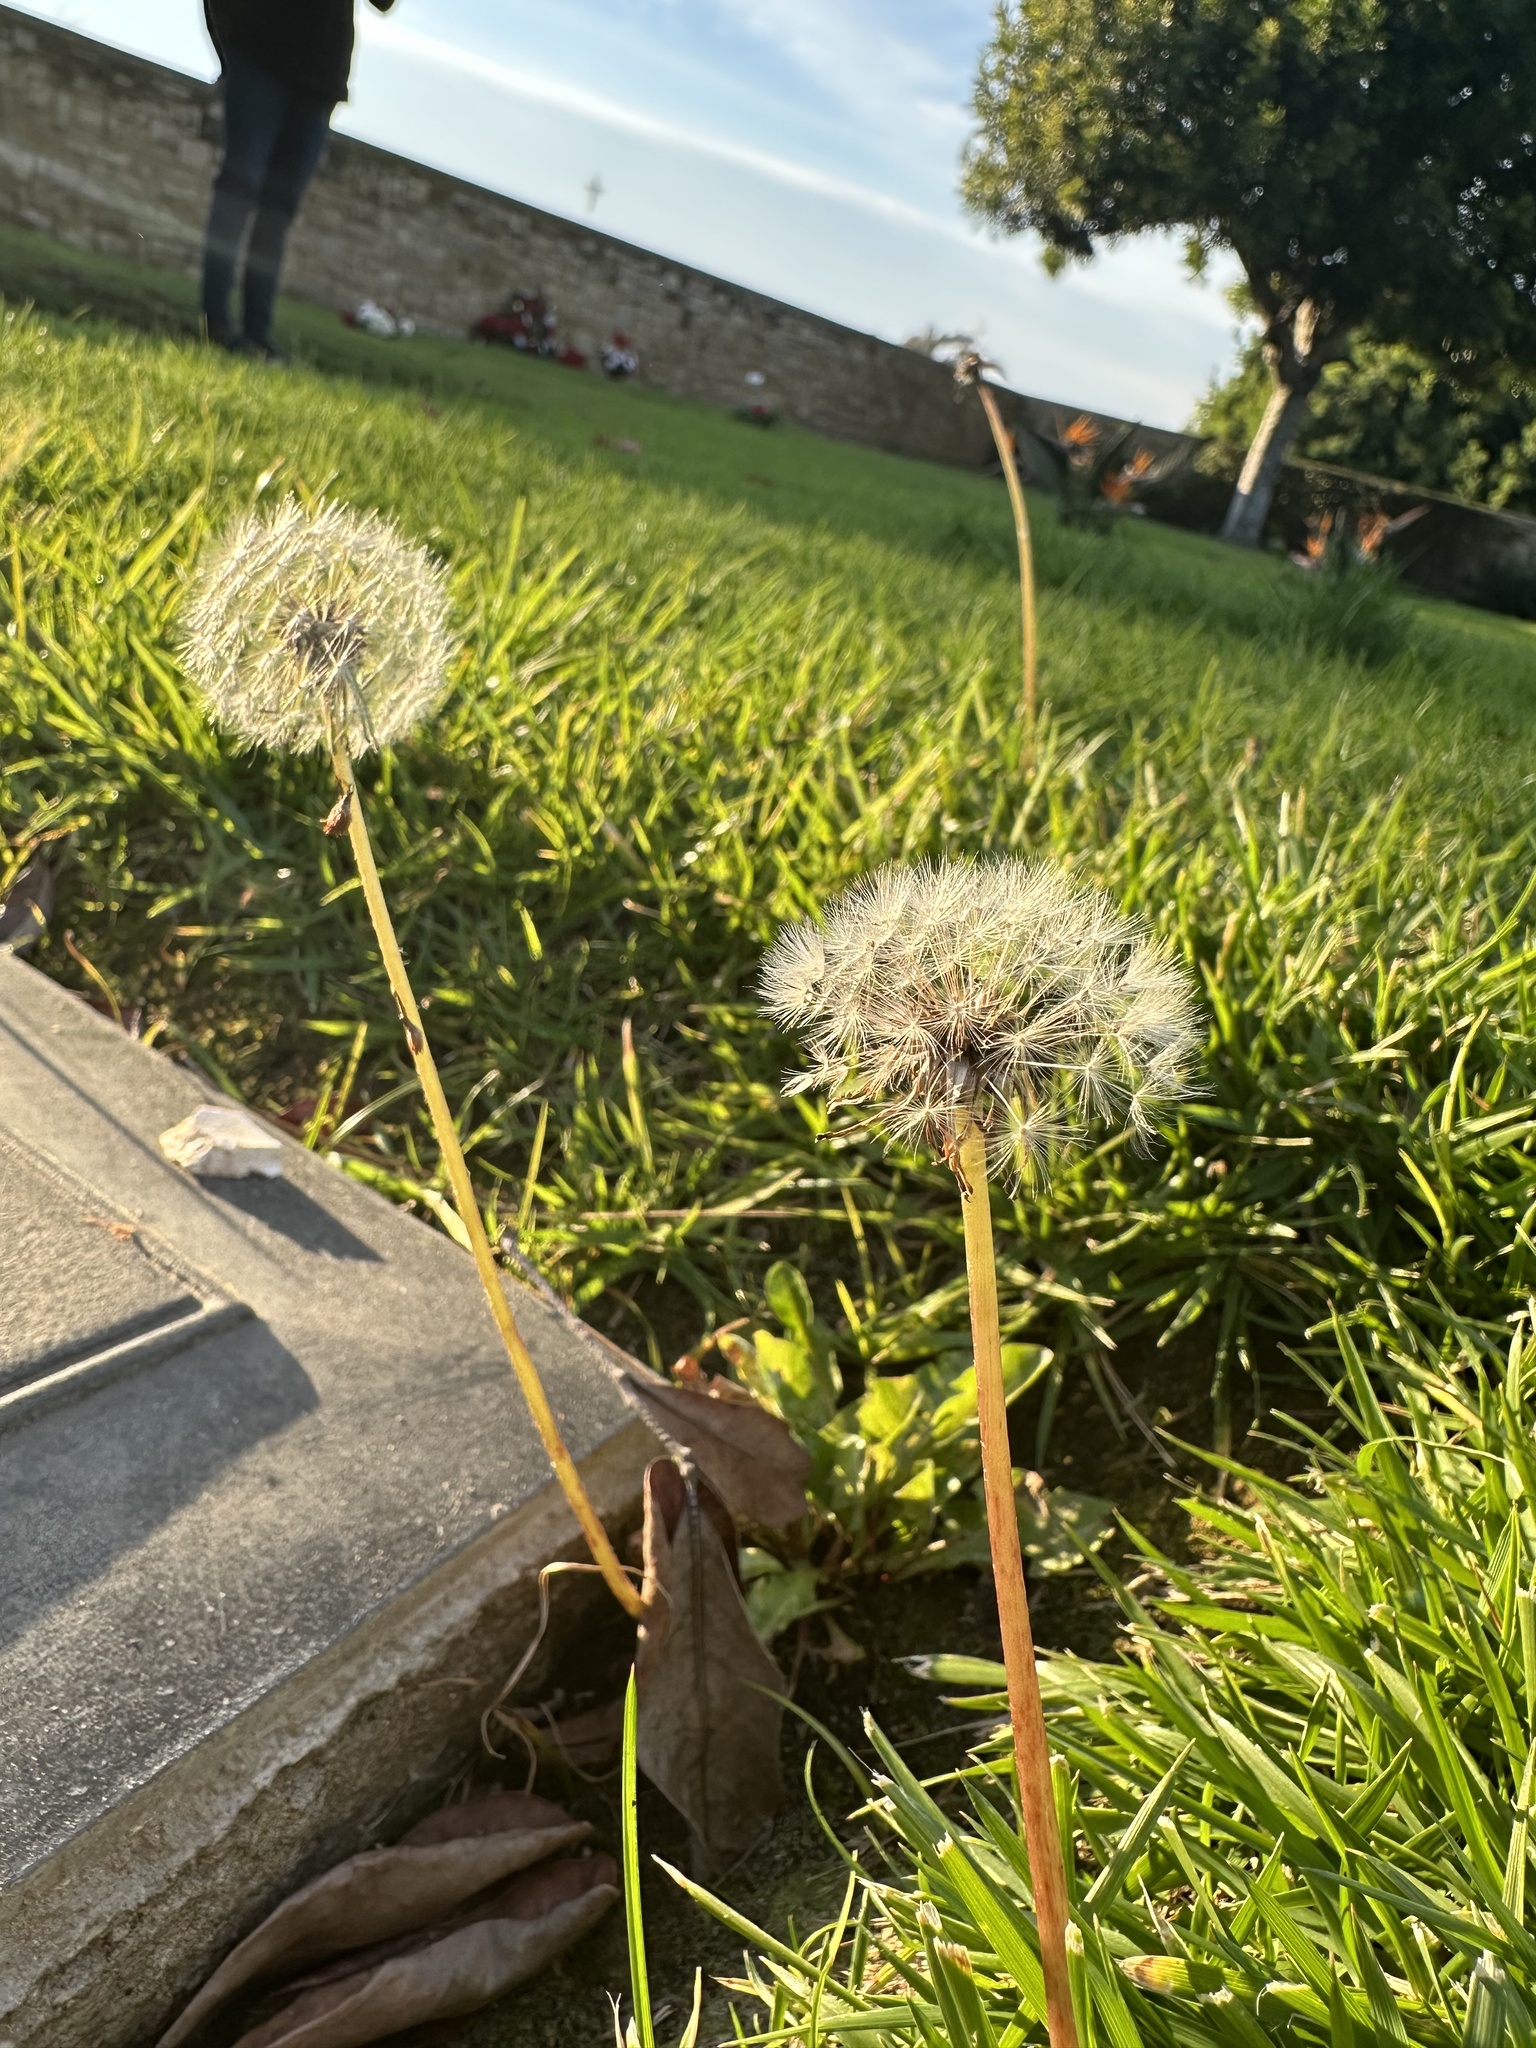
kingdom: Plantae
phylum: Tracheophyta
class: Magnoliopsida
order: Asterales
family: Asteraceae
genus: Taraxacum
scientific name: Taraxacum
